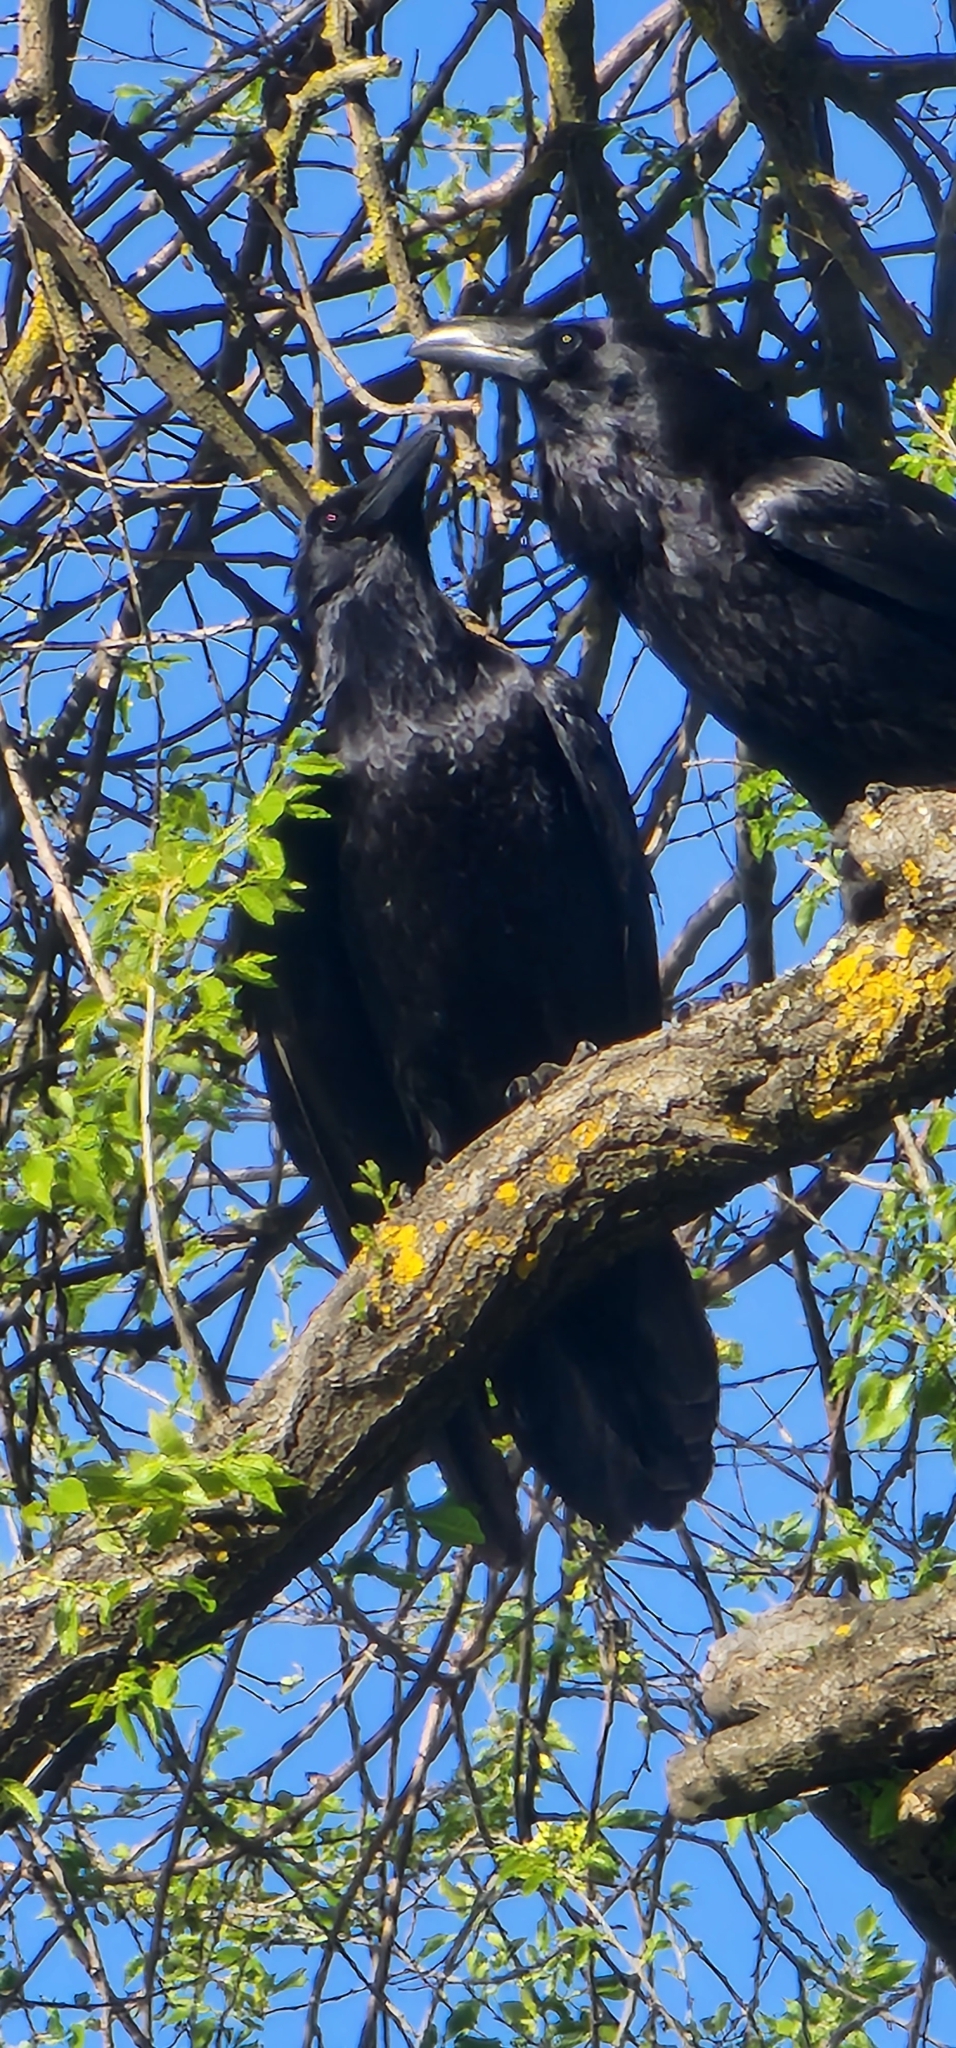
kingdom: Animalia
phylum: Chordata
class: Aves
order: Passeriformes
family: Corvidae
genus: Corvus
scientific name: Corvus corax
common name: Common raven
